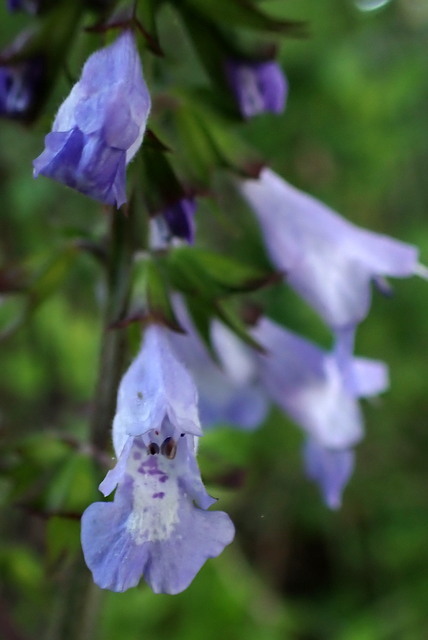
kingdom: Plantae
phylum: Tracheophyta
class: Magnoliopsida
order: Lamiales
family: Lamiaceae
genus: Salvia
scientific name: Salvia lyrata
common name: Cancerweed
